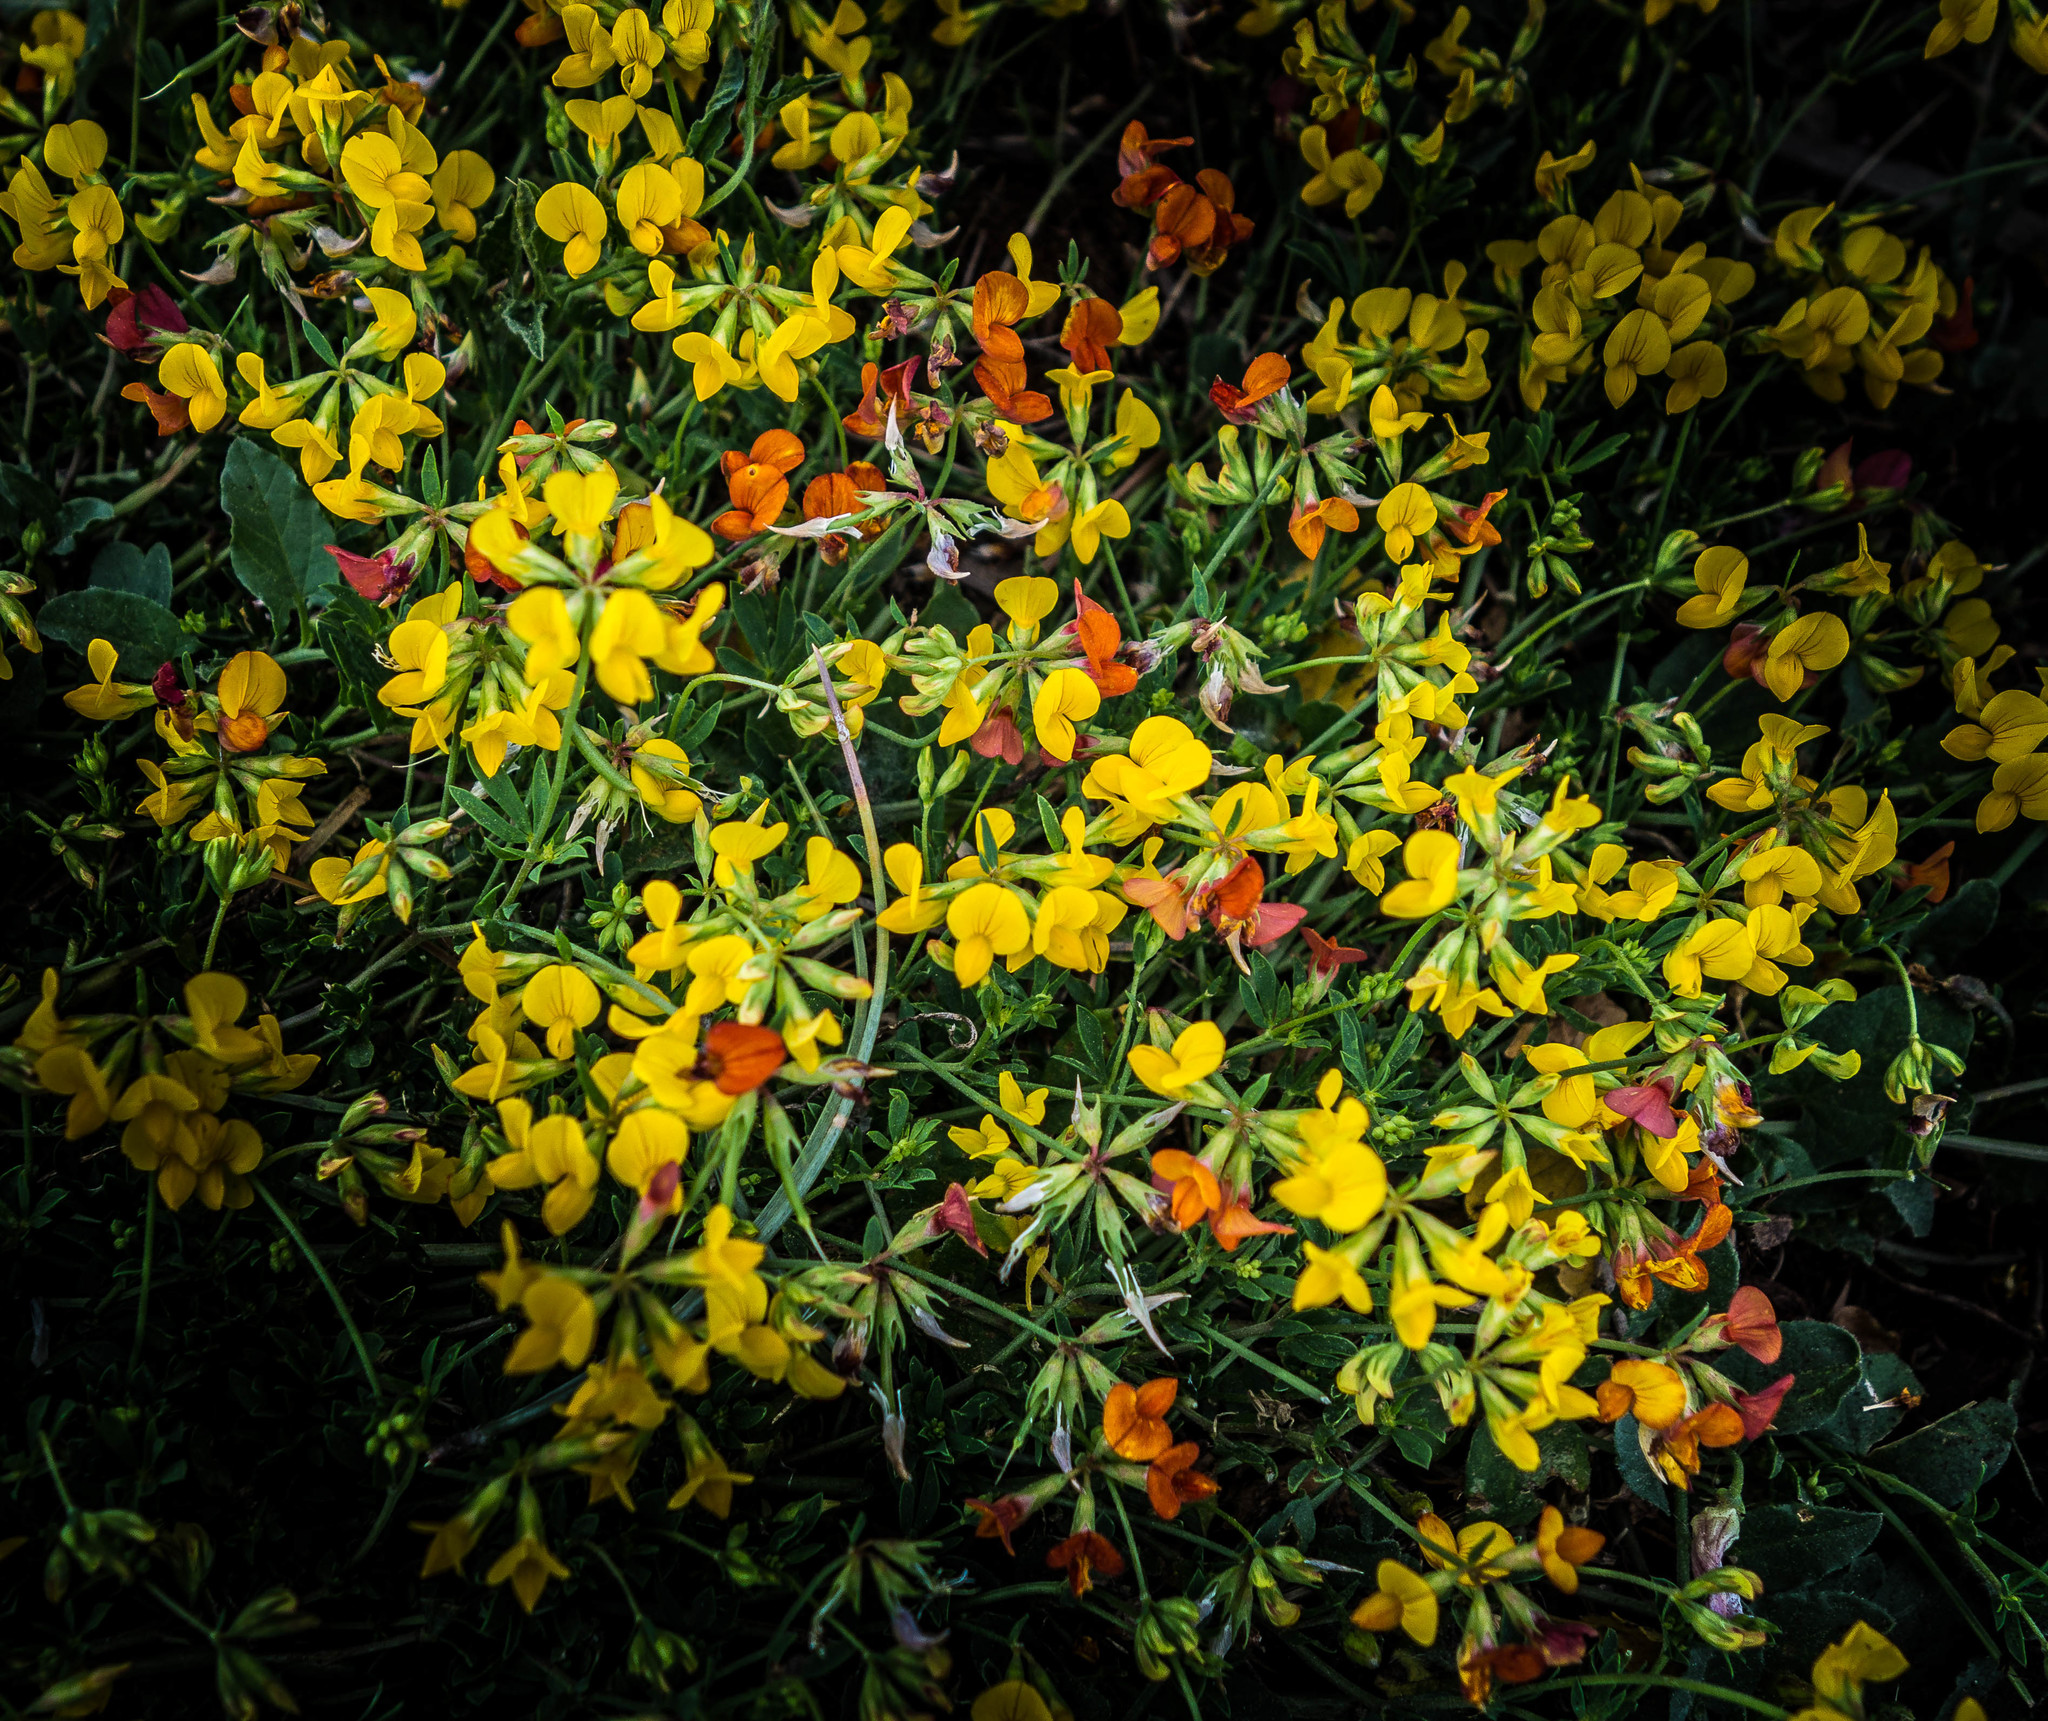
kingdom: Plantae
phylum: Tracheophyta
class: Magnoliopsida
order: Fabales
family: Fabaceae
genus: Lotus
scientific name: Lotus corniculatus
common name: Common bird's-foot-trefoil
